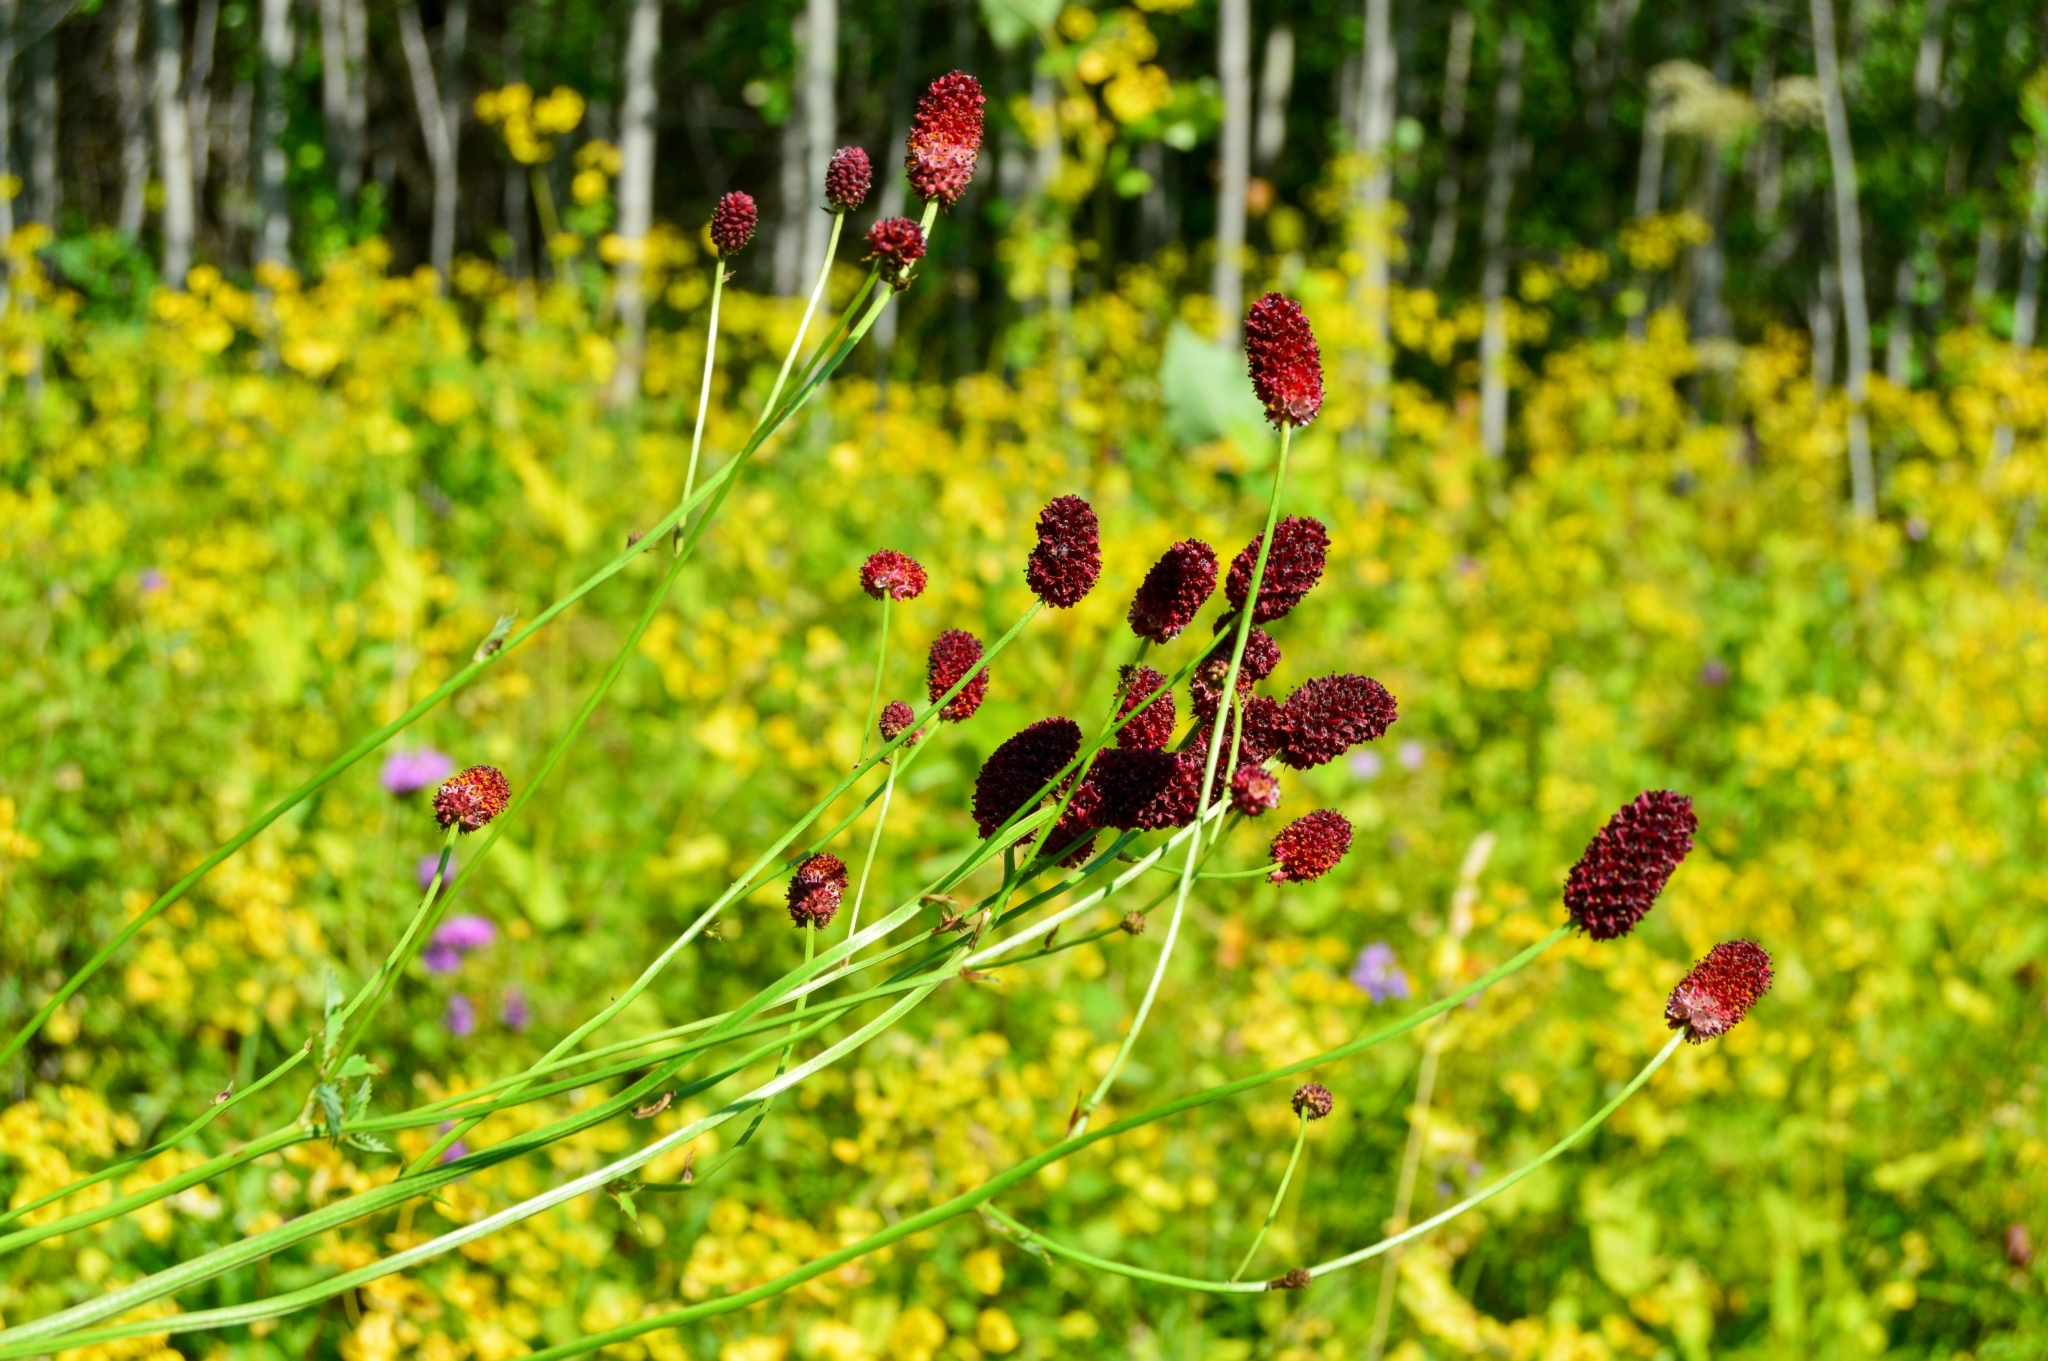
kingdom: Plantae
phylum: Tracheophyta
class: Magnoliopsida
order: Rosales
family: Rosaceae
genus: Sanguisorba
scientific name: Sanguisorba officinalis
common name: Great burnet
